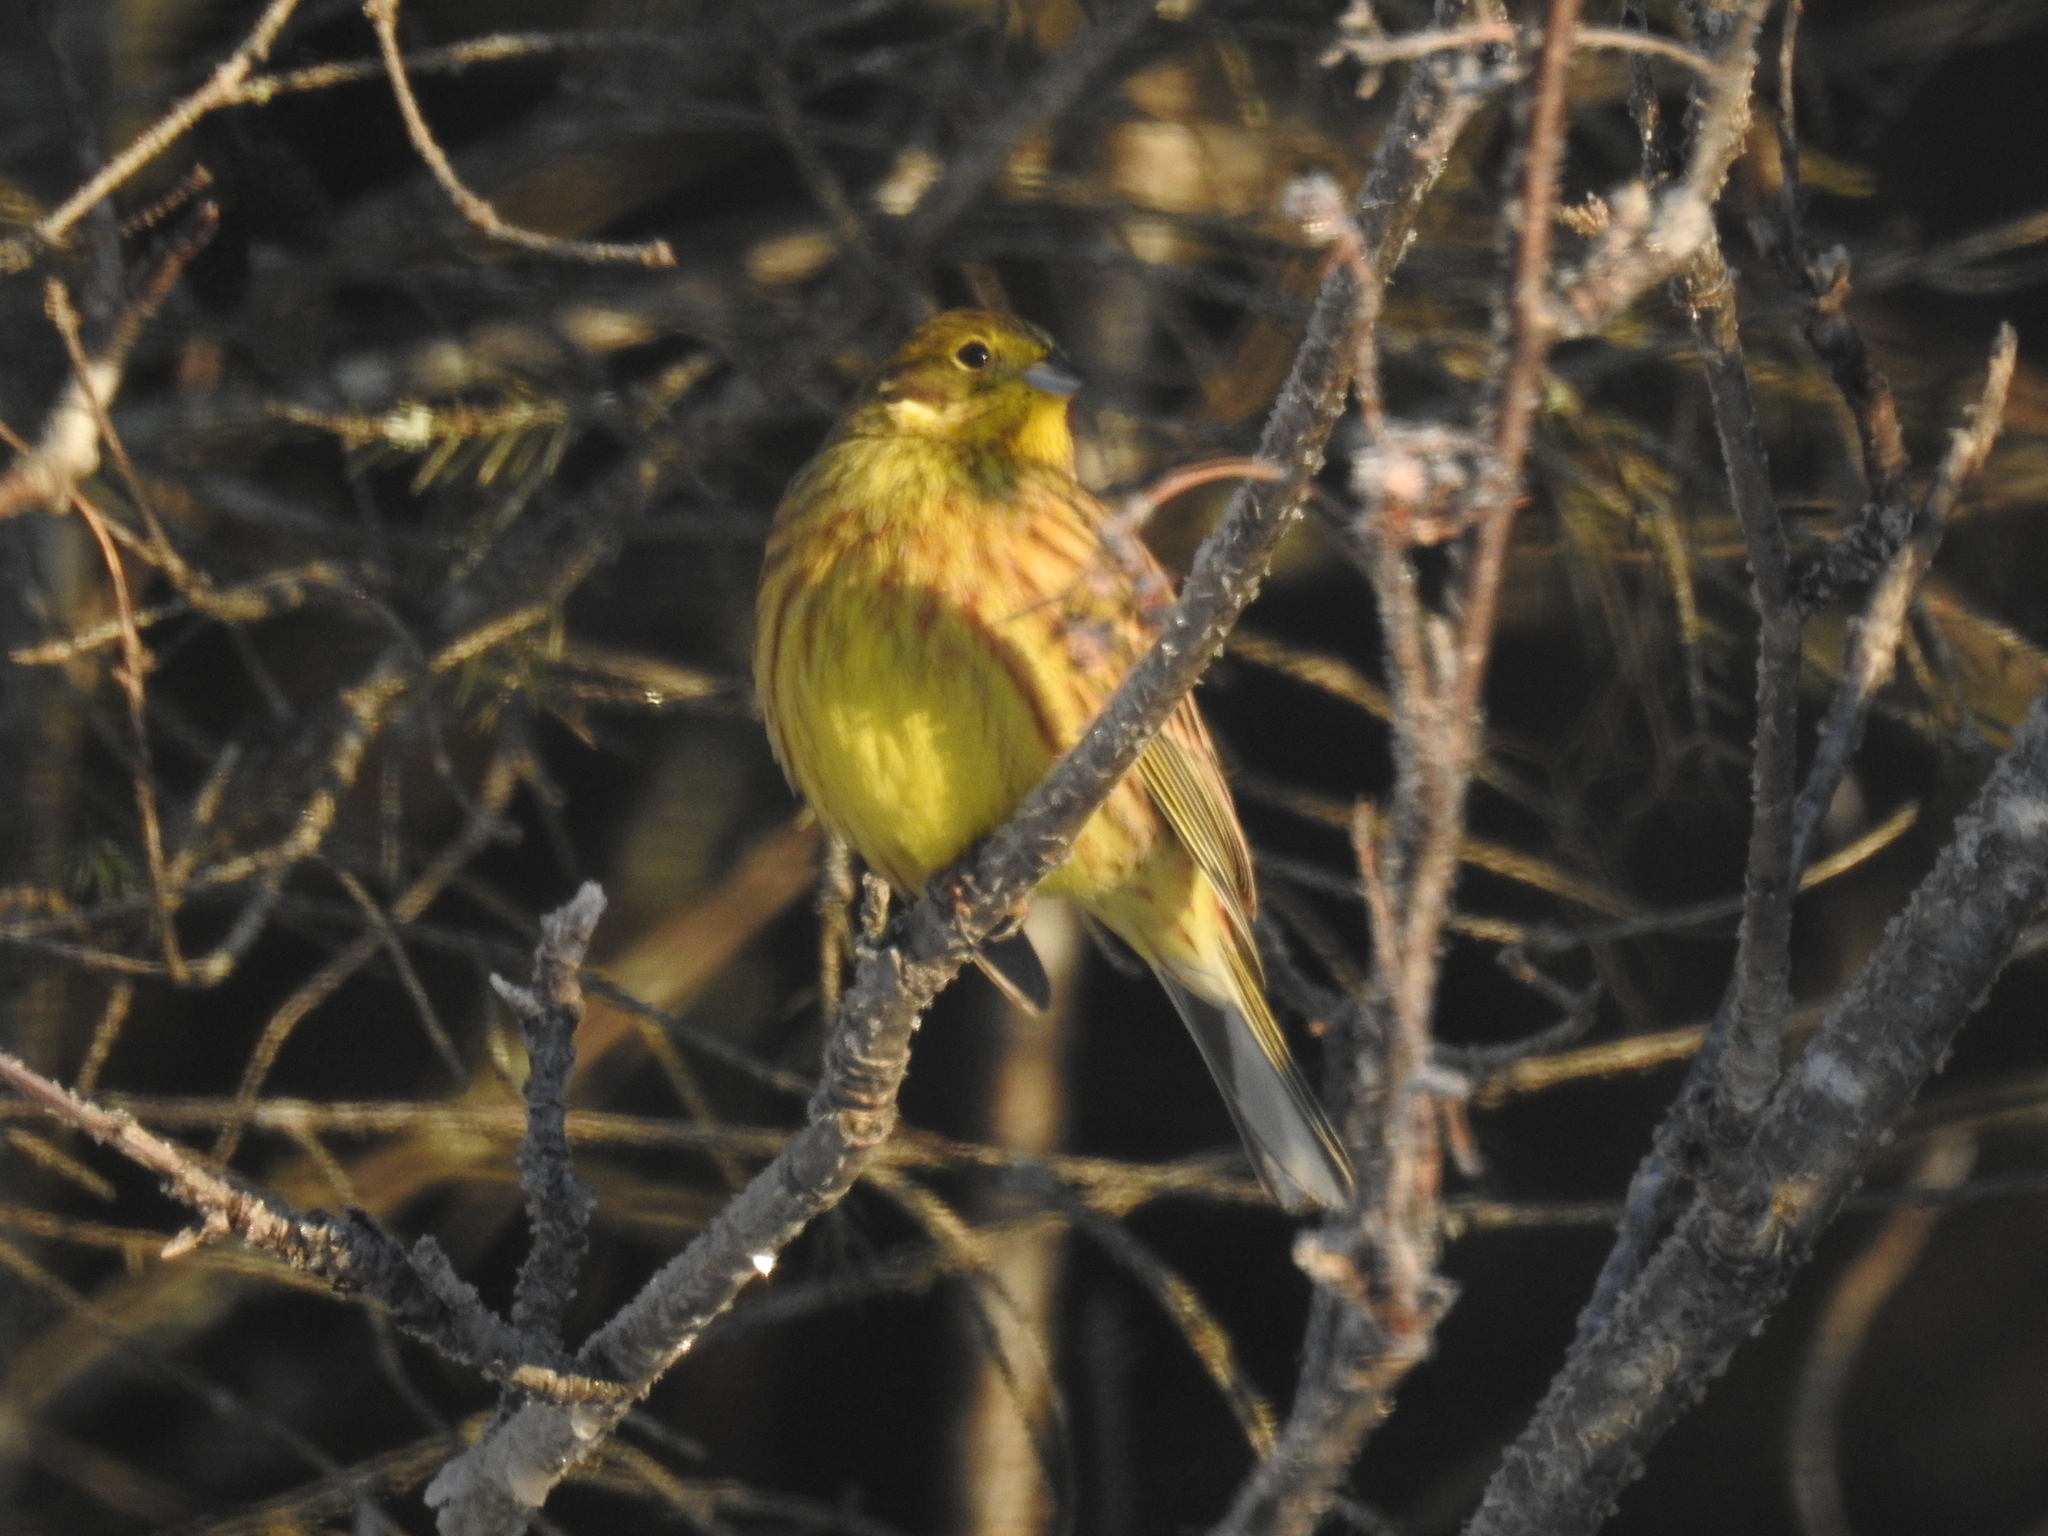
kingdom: Animalia
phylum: Chordata
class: Aves
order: Passeriformes
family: Emberizidae
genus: Emberiza
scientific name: Emberiza citrinella
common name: Yellowhammer
